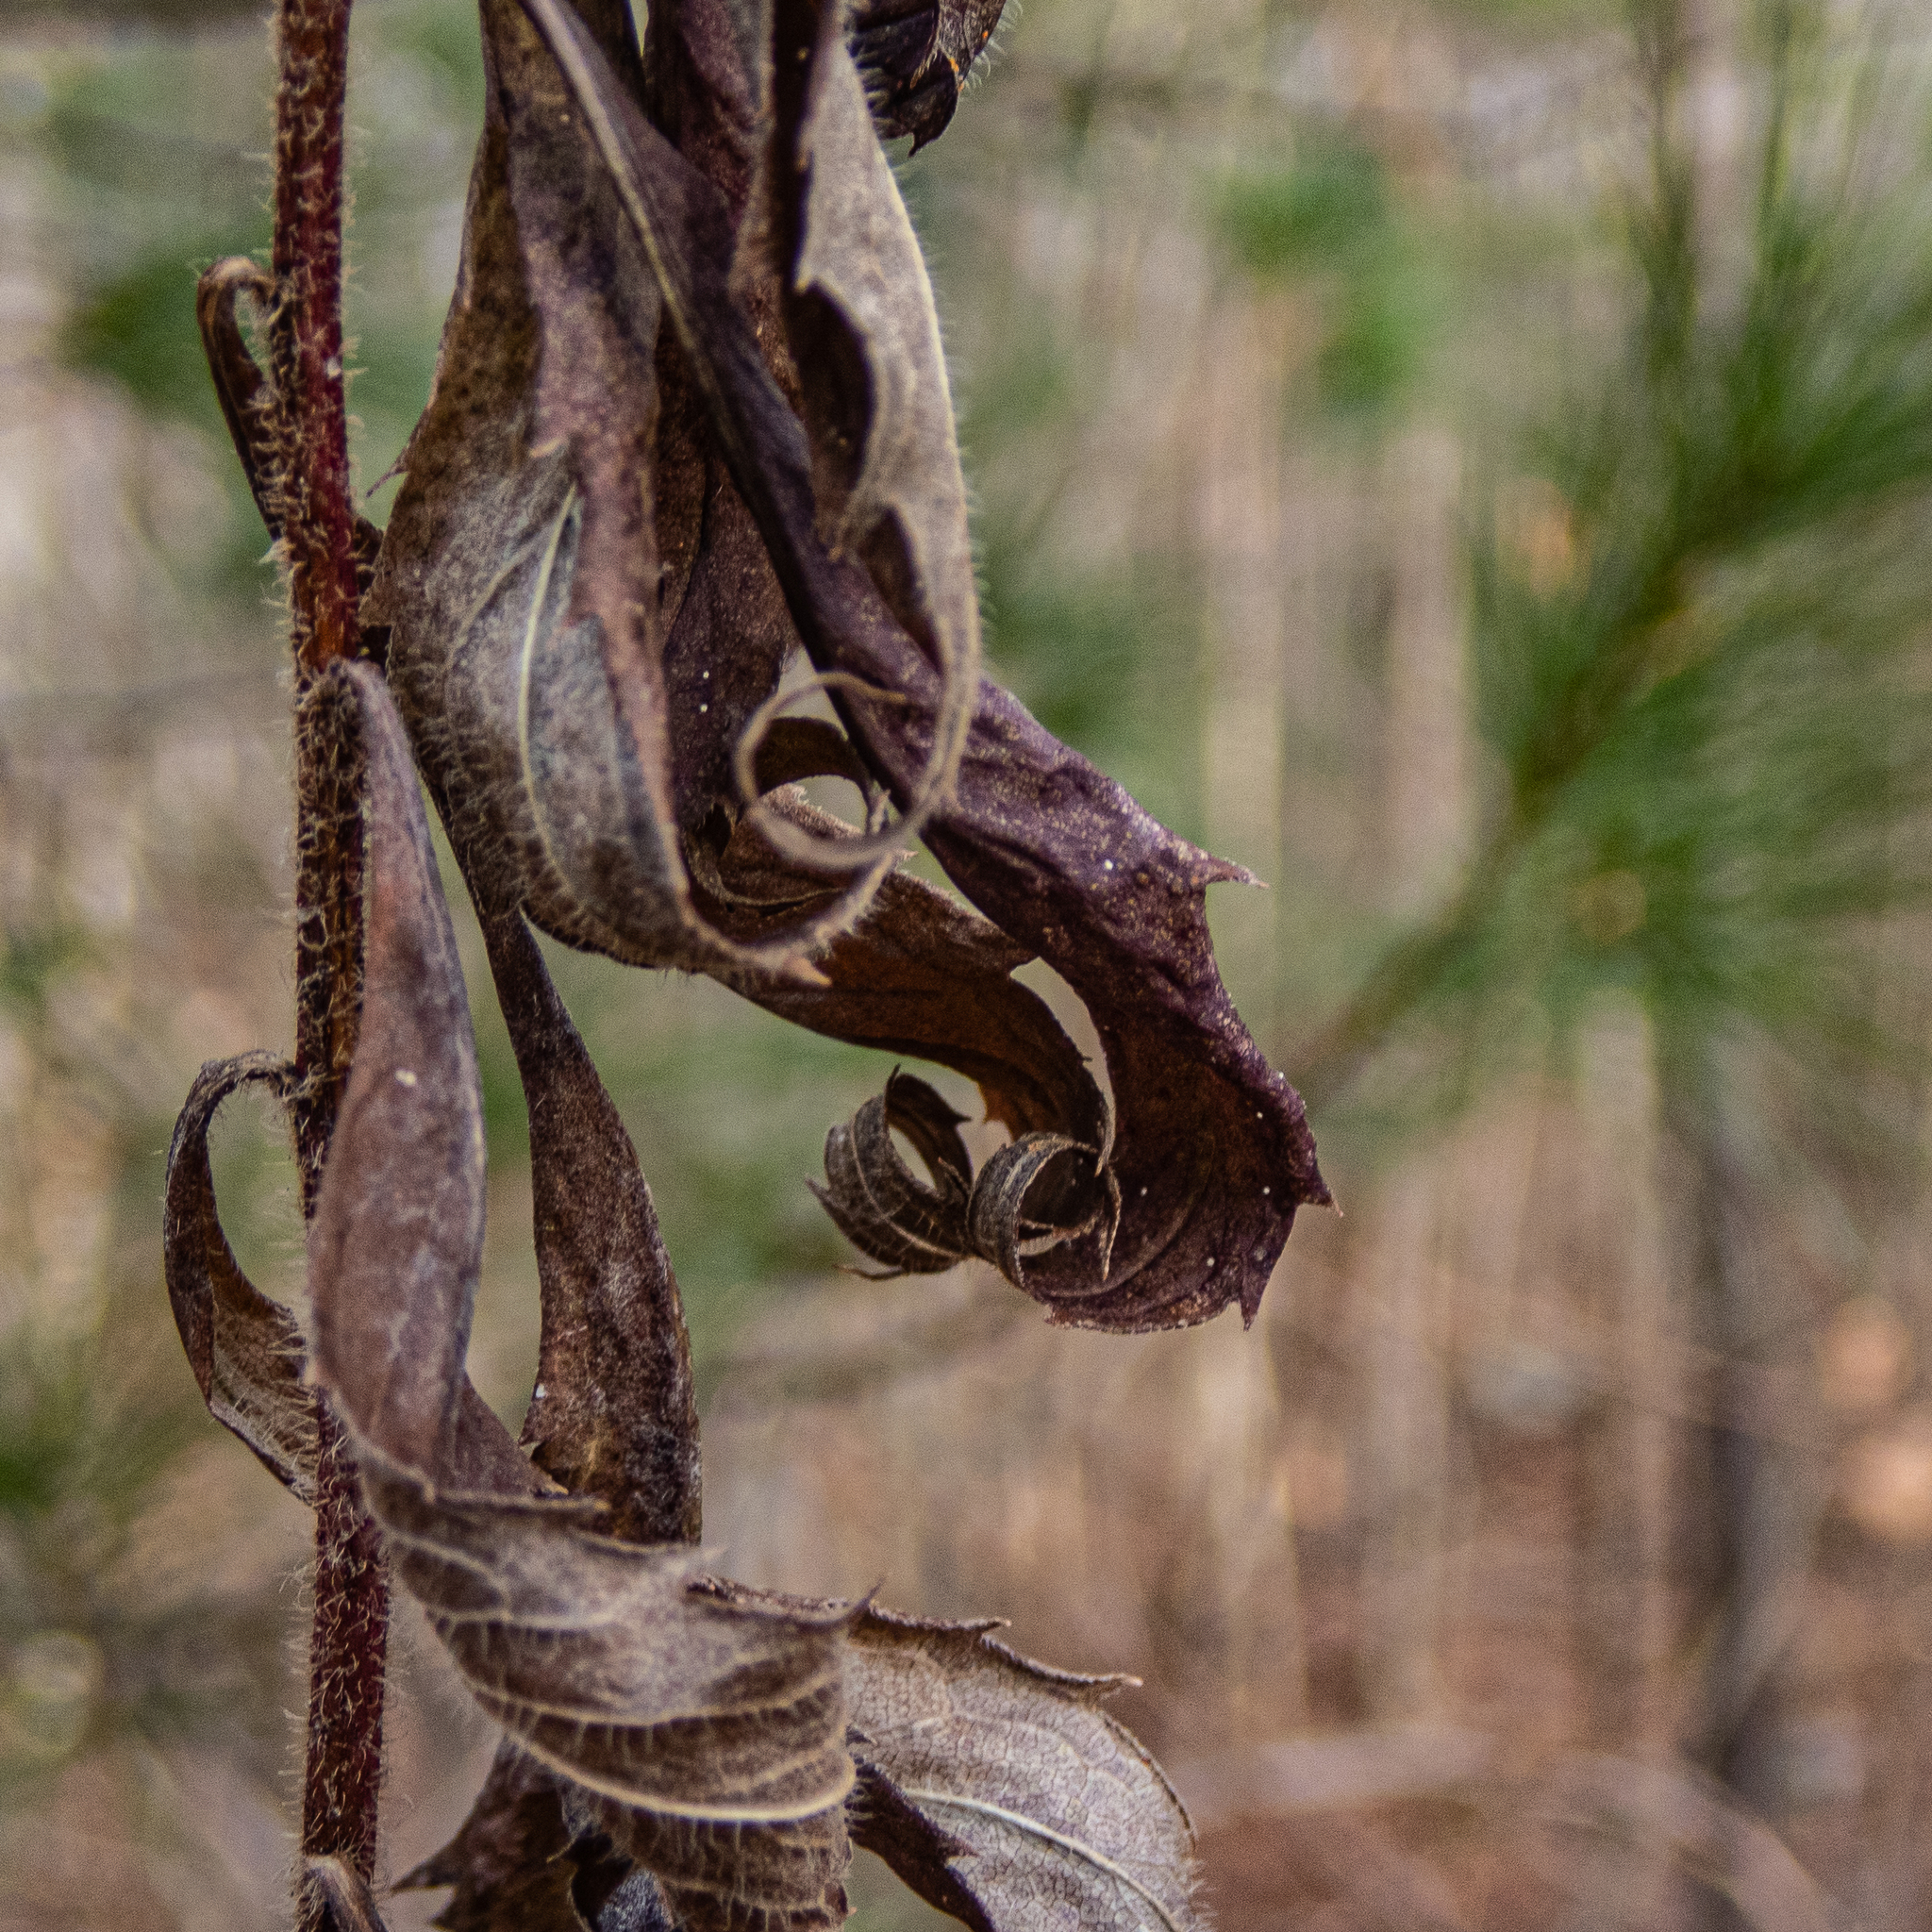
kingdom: Plantae
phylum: Tracheophyta
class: Magnoliopsida
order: Asterales
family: Asteraceae
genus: Solidago
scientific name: Solidago rugosa
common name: Rough-stemmed goldenrod
